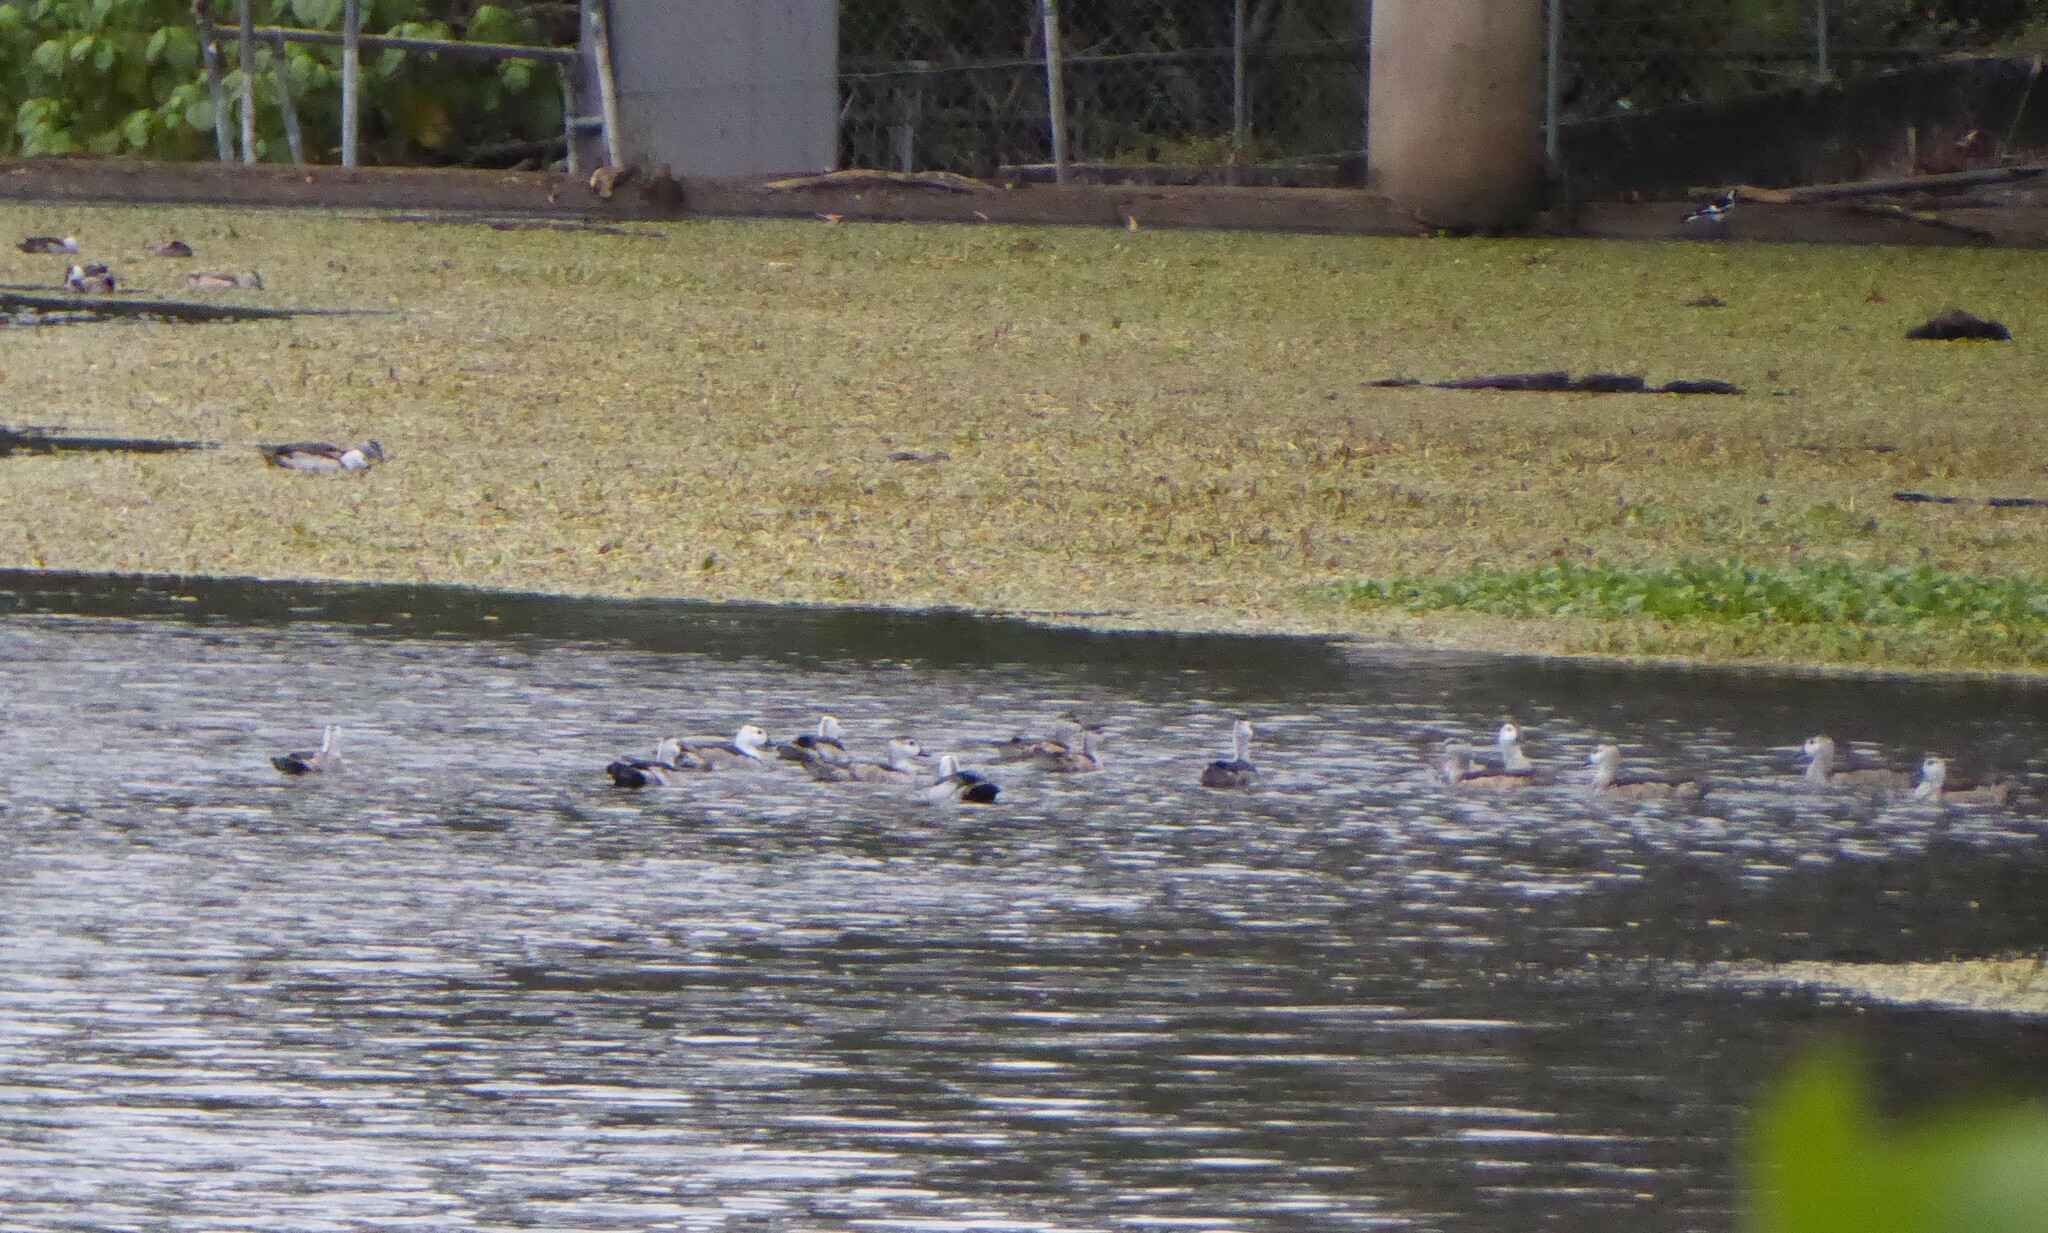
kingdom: Animalia
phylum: Chordata
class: Aves
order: Anseriformes
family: Anatidae
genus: Nettapus
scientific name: Nettapus coromandelianus
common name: Cotton pygmy-goose
